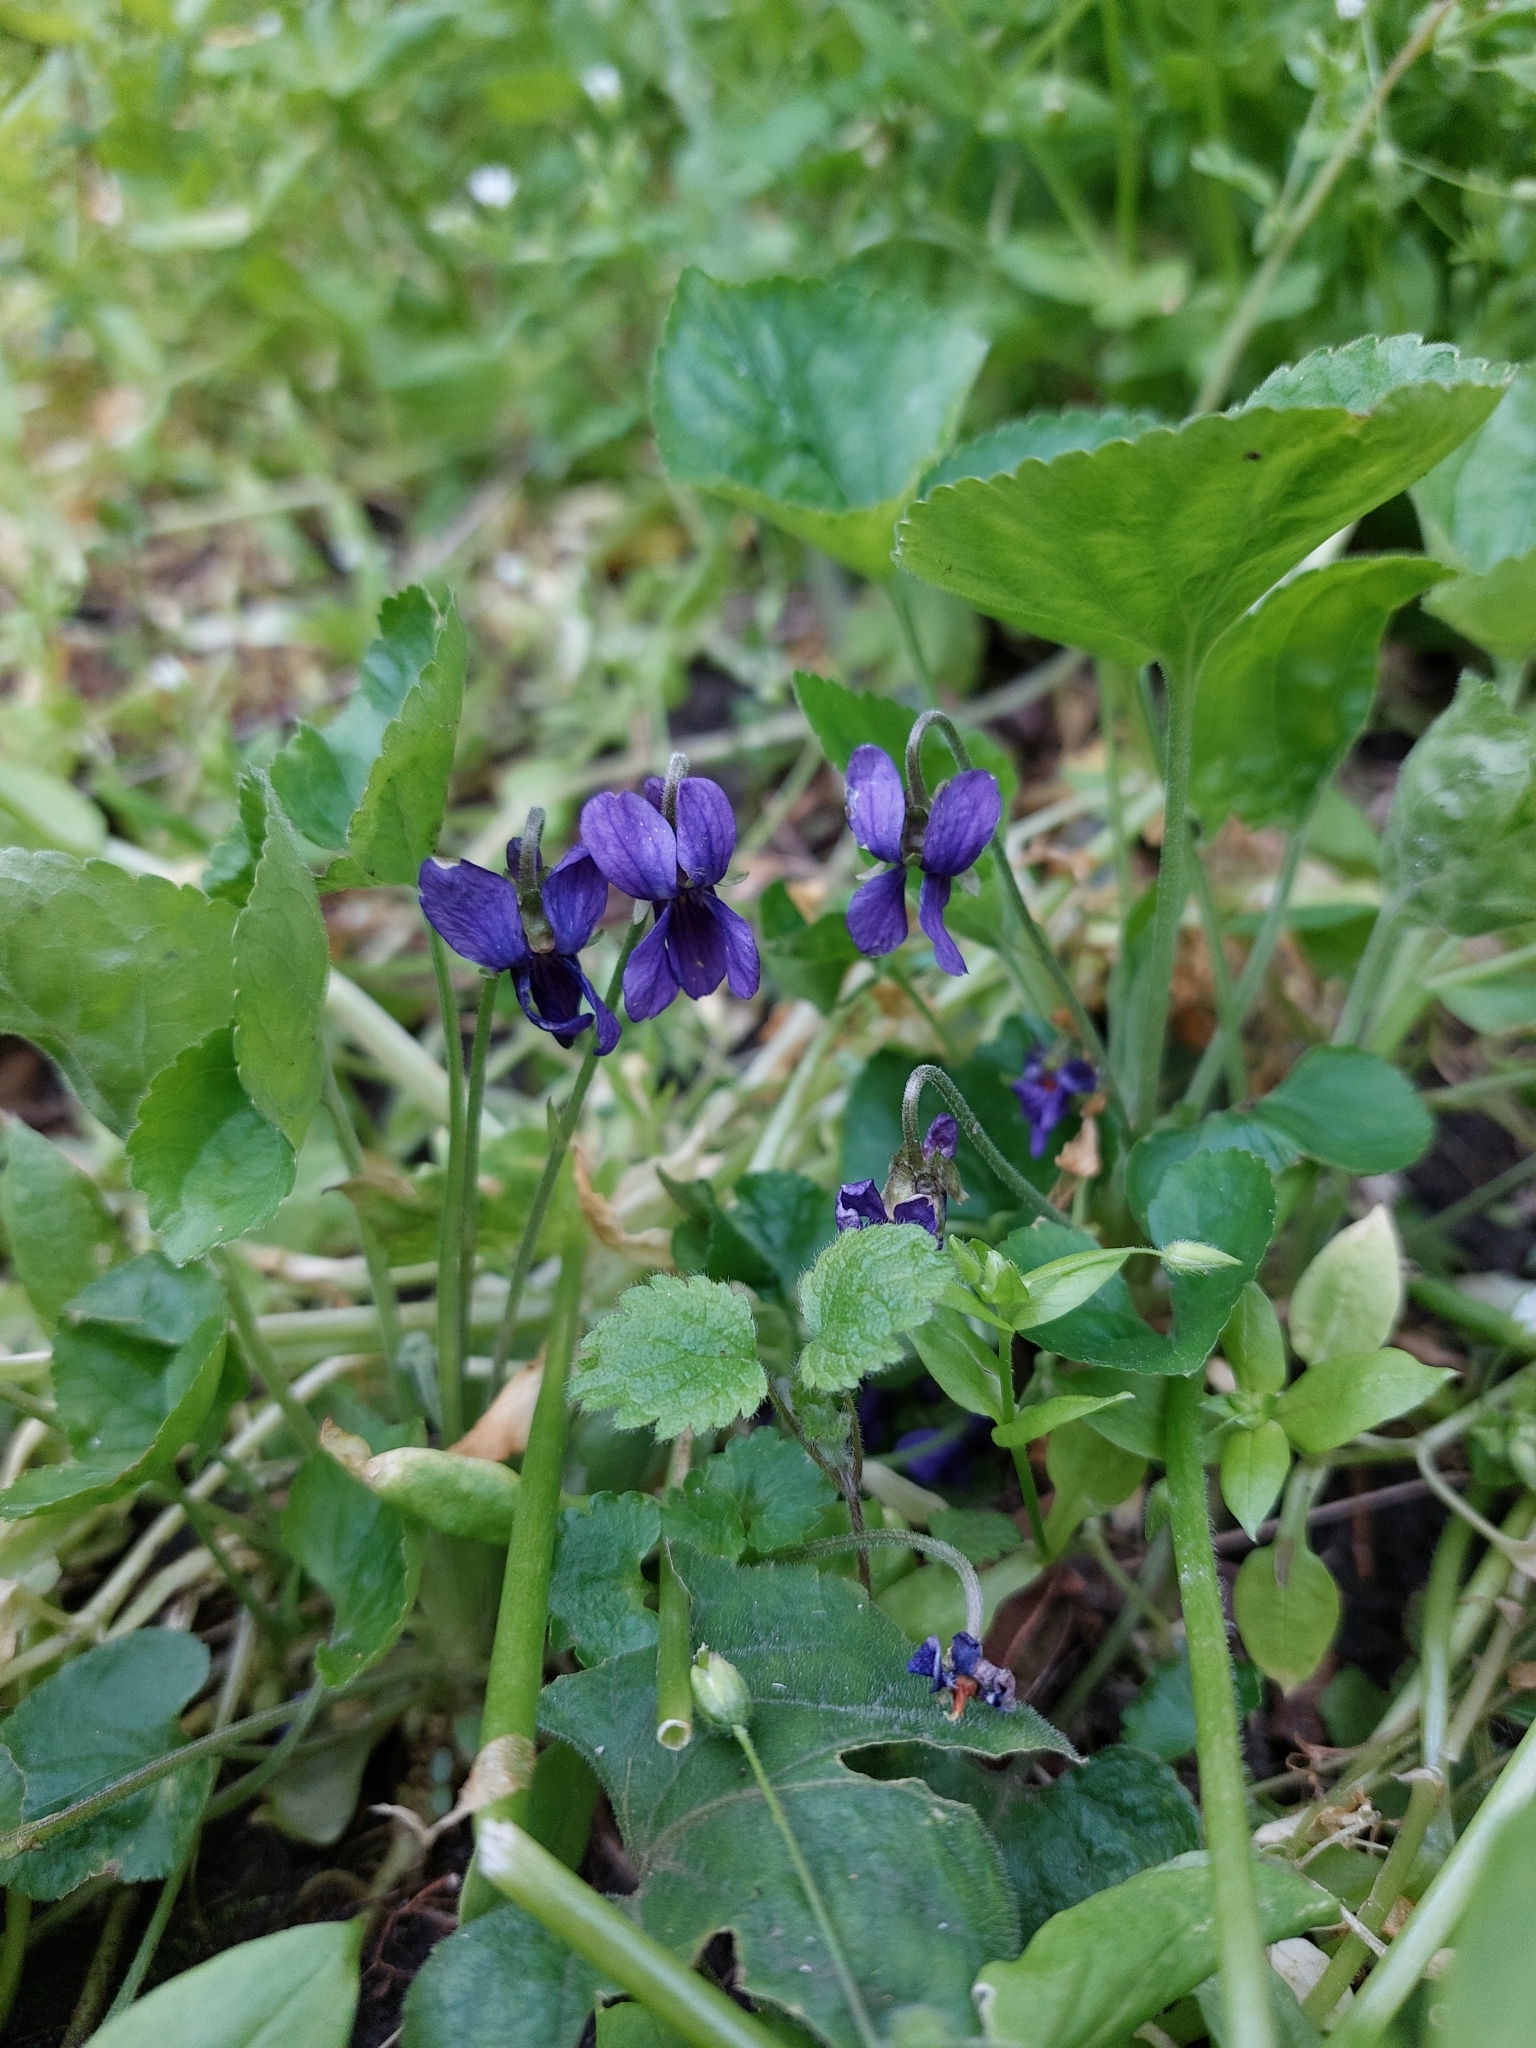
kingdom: Plantae
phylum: Tracheophyta
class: Magnoliopsida
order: Malpighiales
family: Violaceae
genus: Viola
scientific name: Viola odorata
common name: Sweet violet
